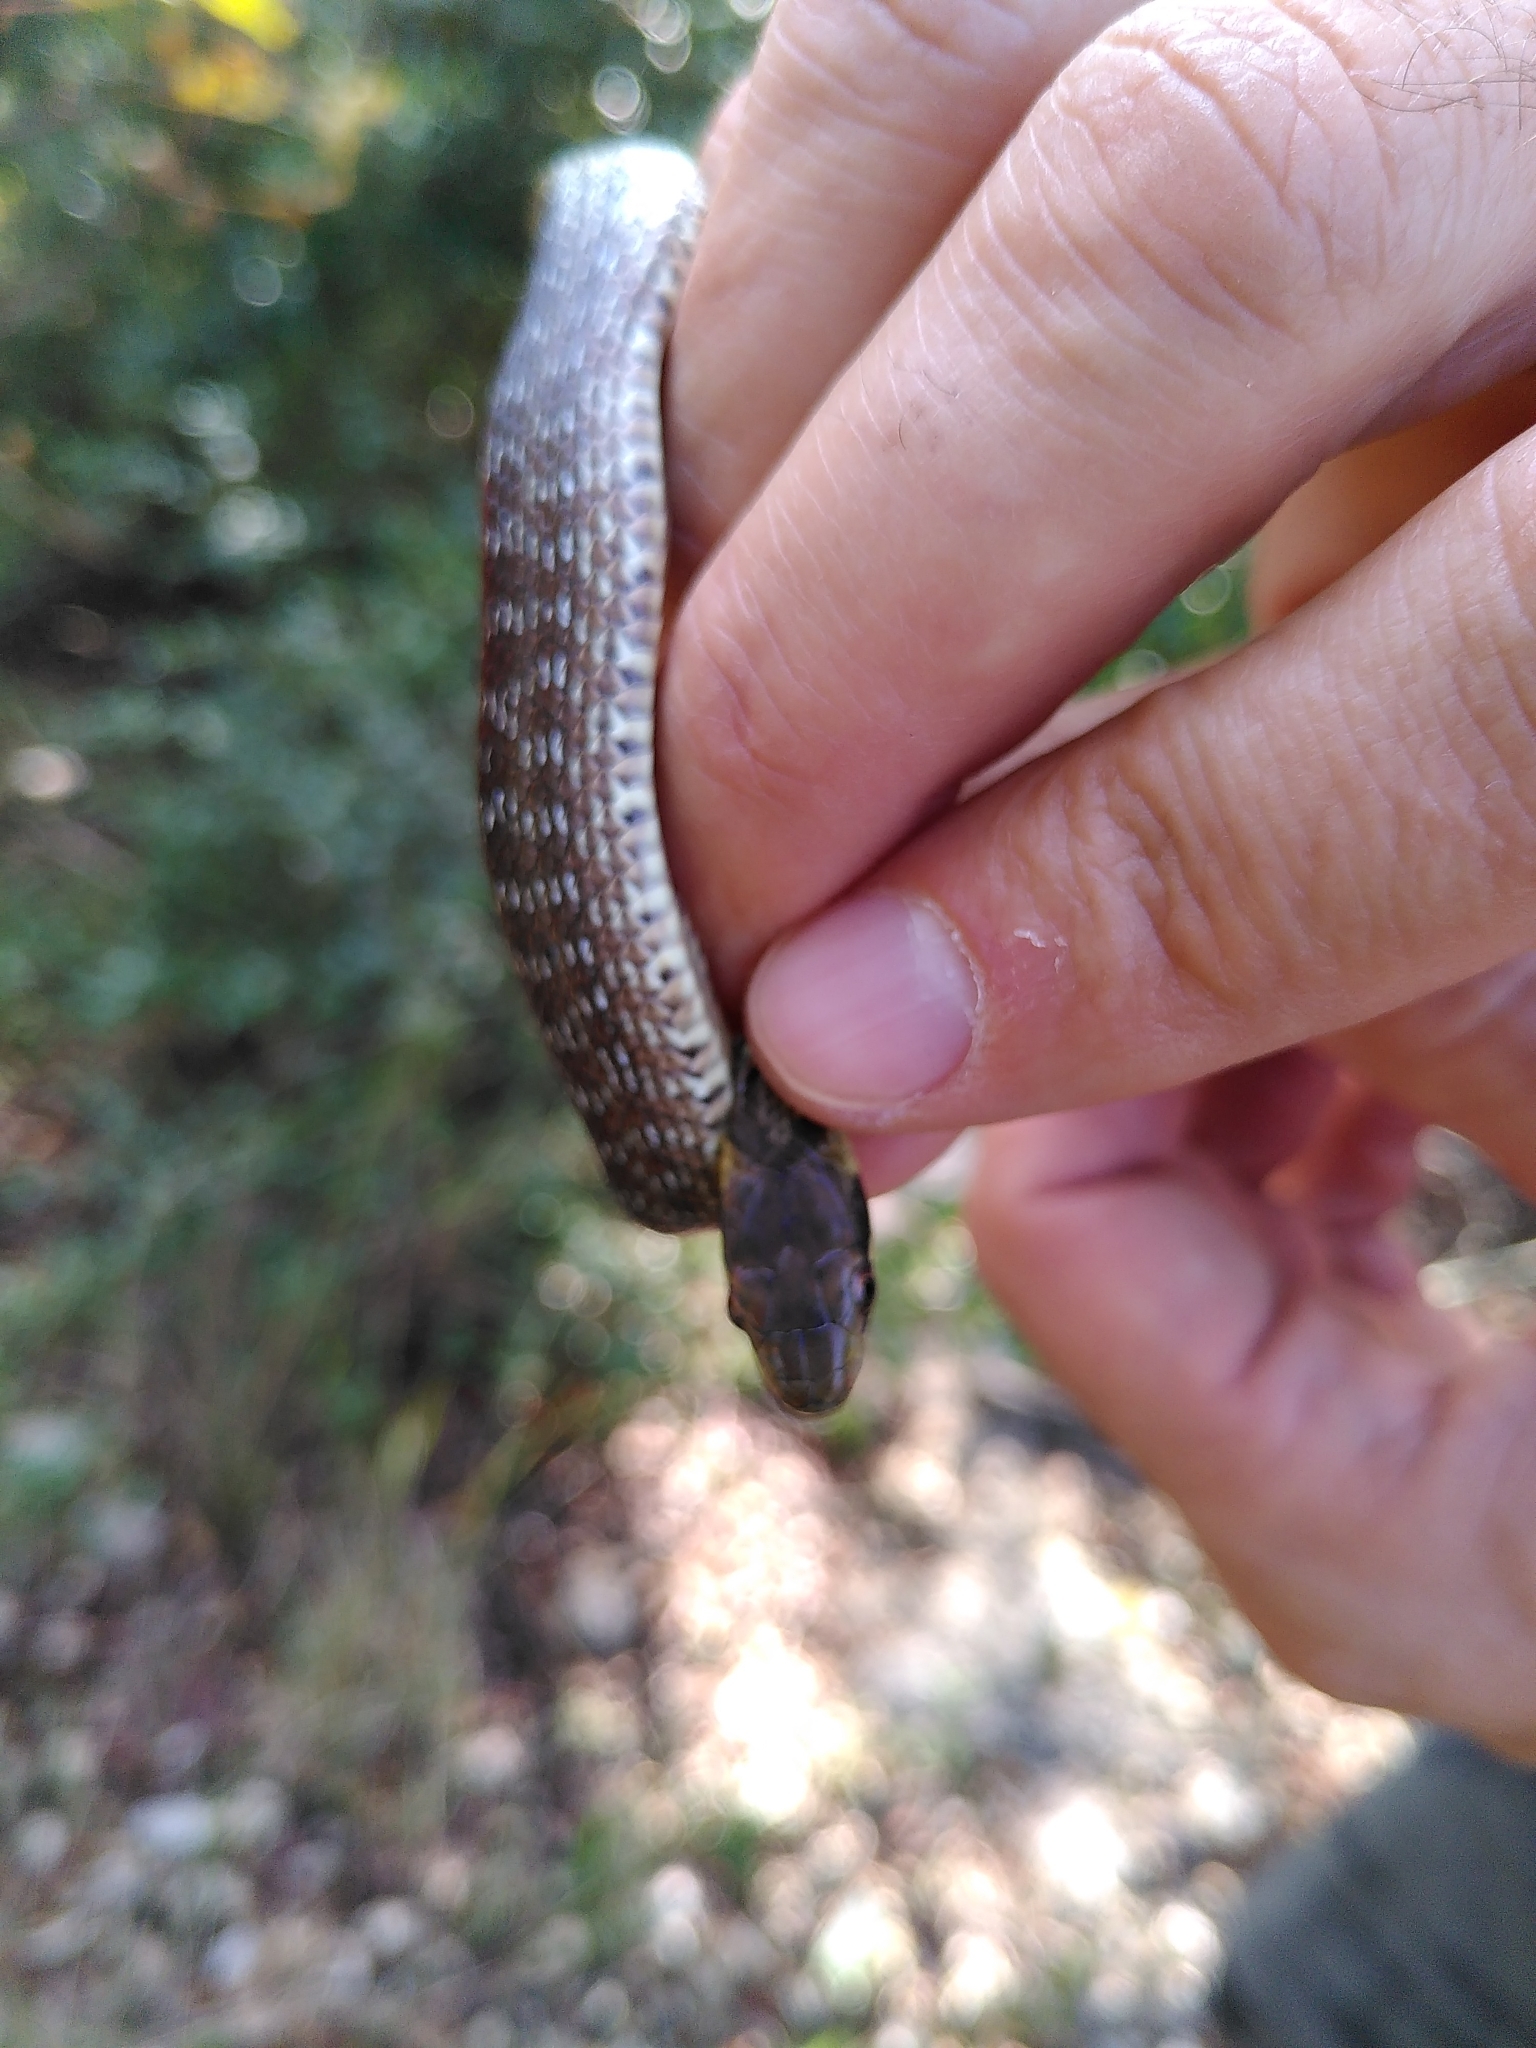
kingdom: Animalia
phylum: Chordata
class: Squamata
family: Colubridae
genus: Zamenis
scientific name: Zamenis longissimus
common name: Aesculapean snake
